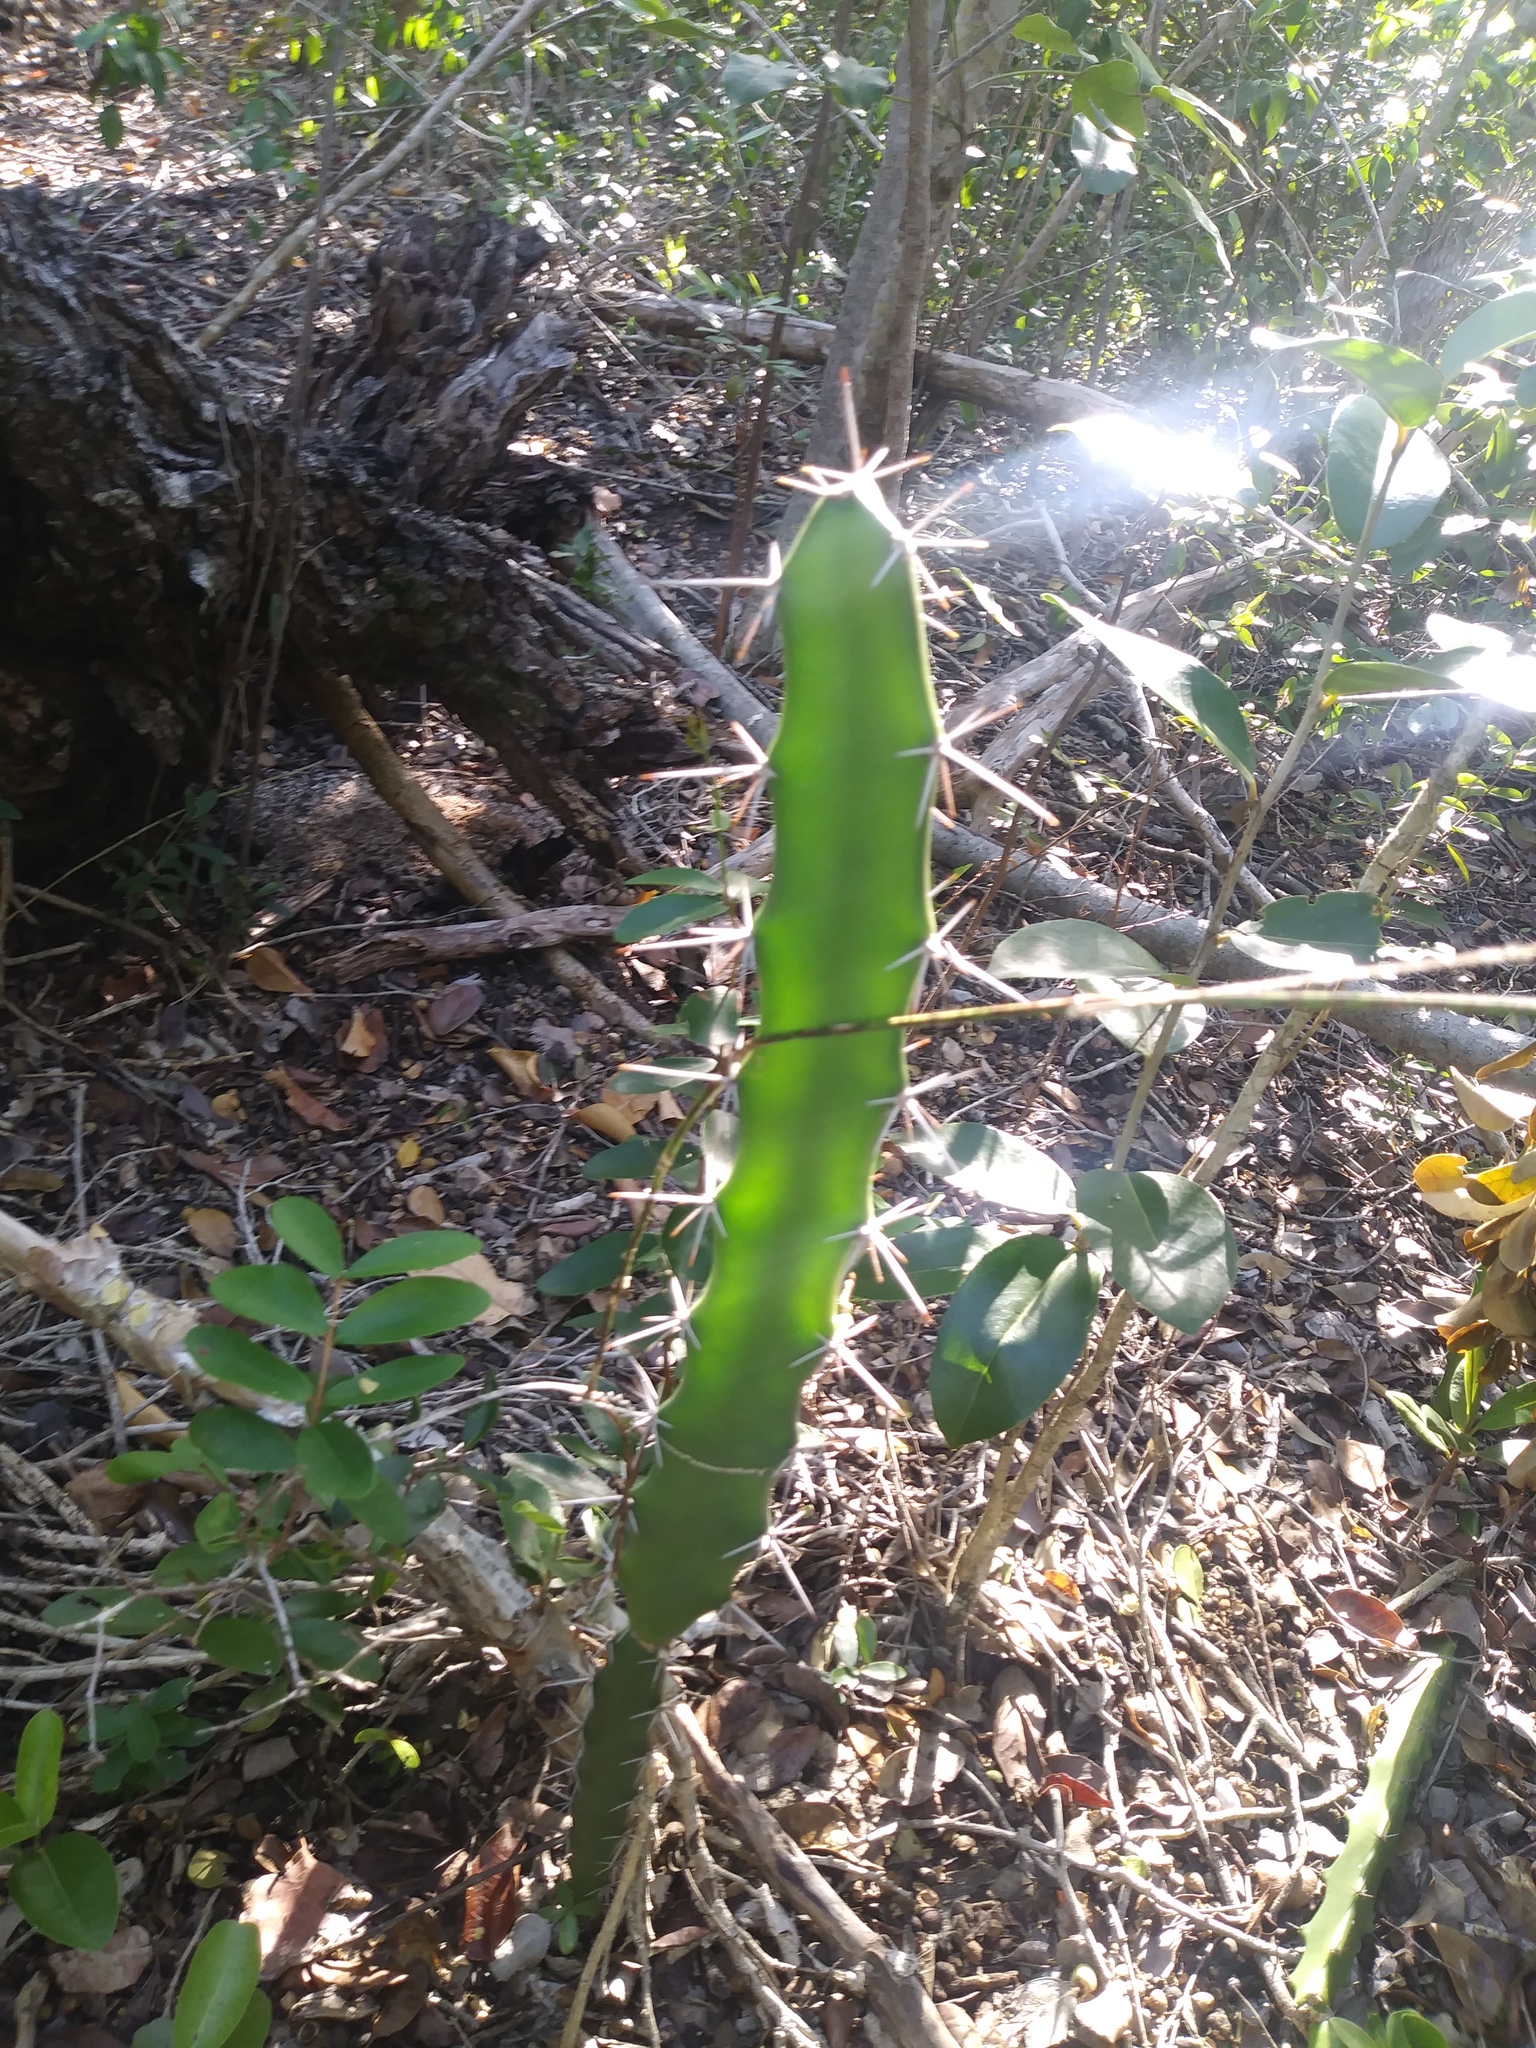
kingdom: Plantae
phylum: Tracheophyta
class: Magnoliopsida
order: Caryophyllales
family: Cactaceae
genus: Acanthocereus
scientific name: Acanthocereus tetragonus
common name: Triangle cactus
